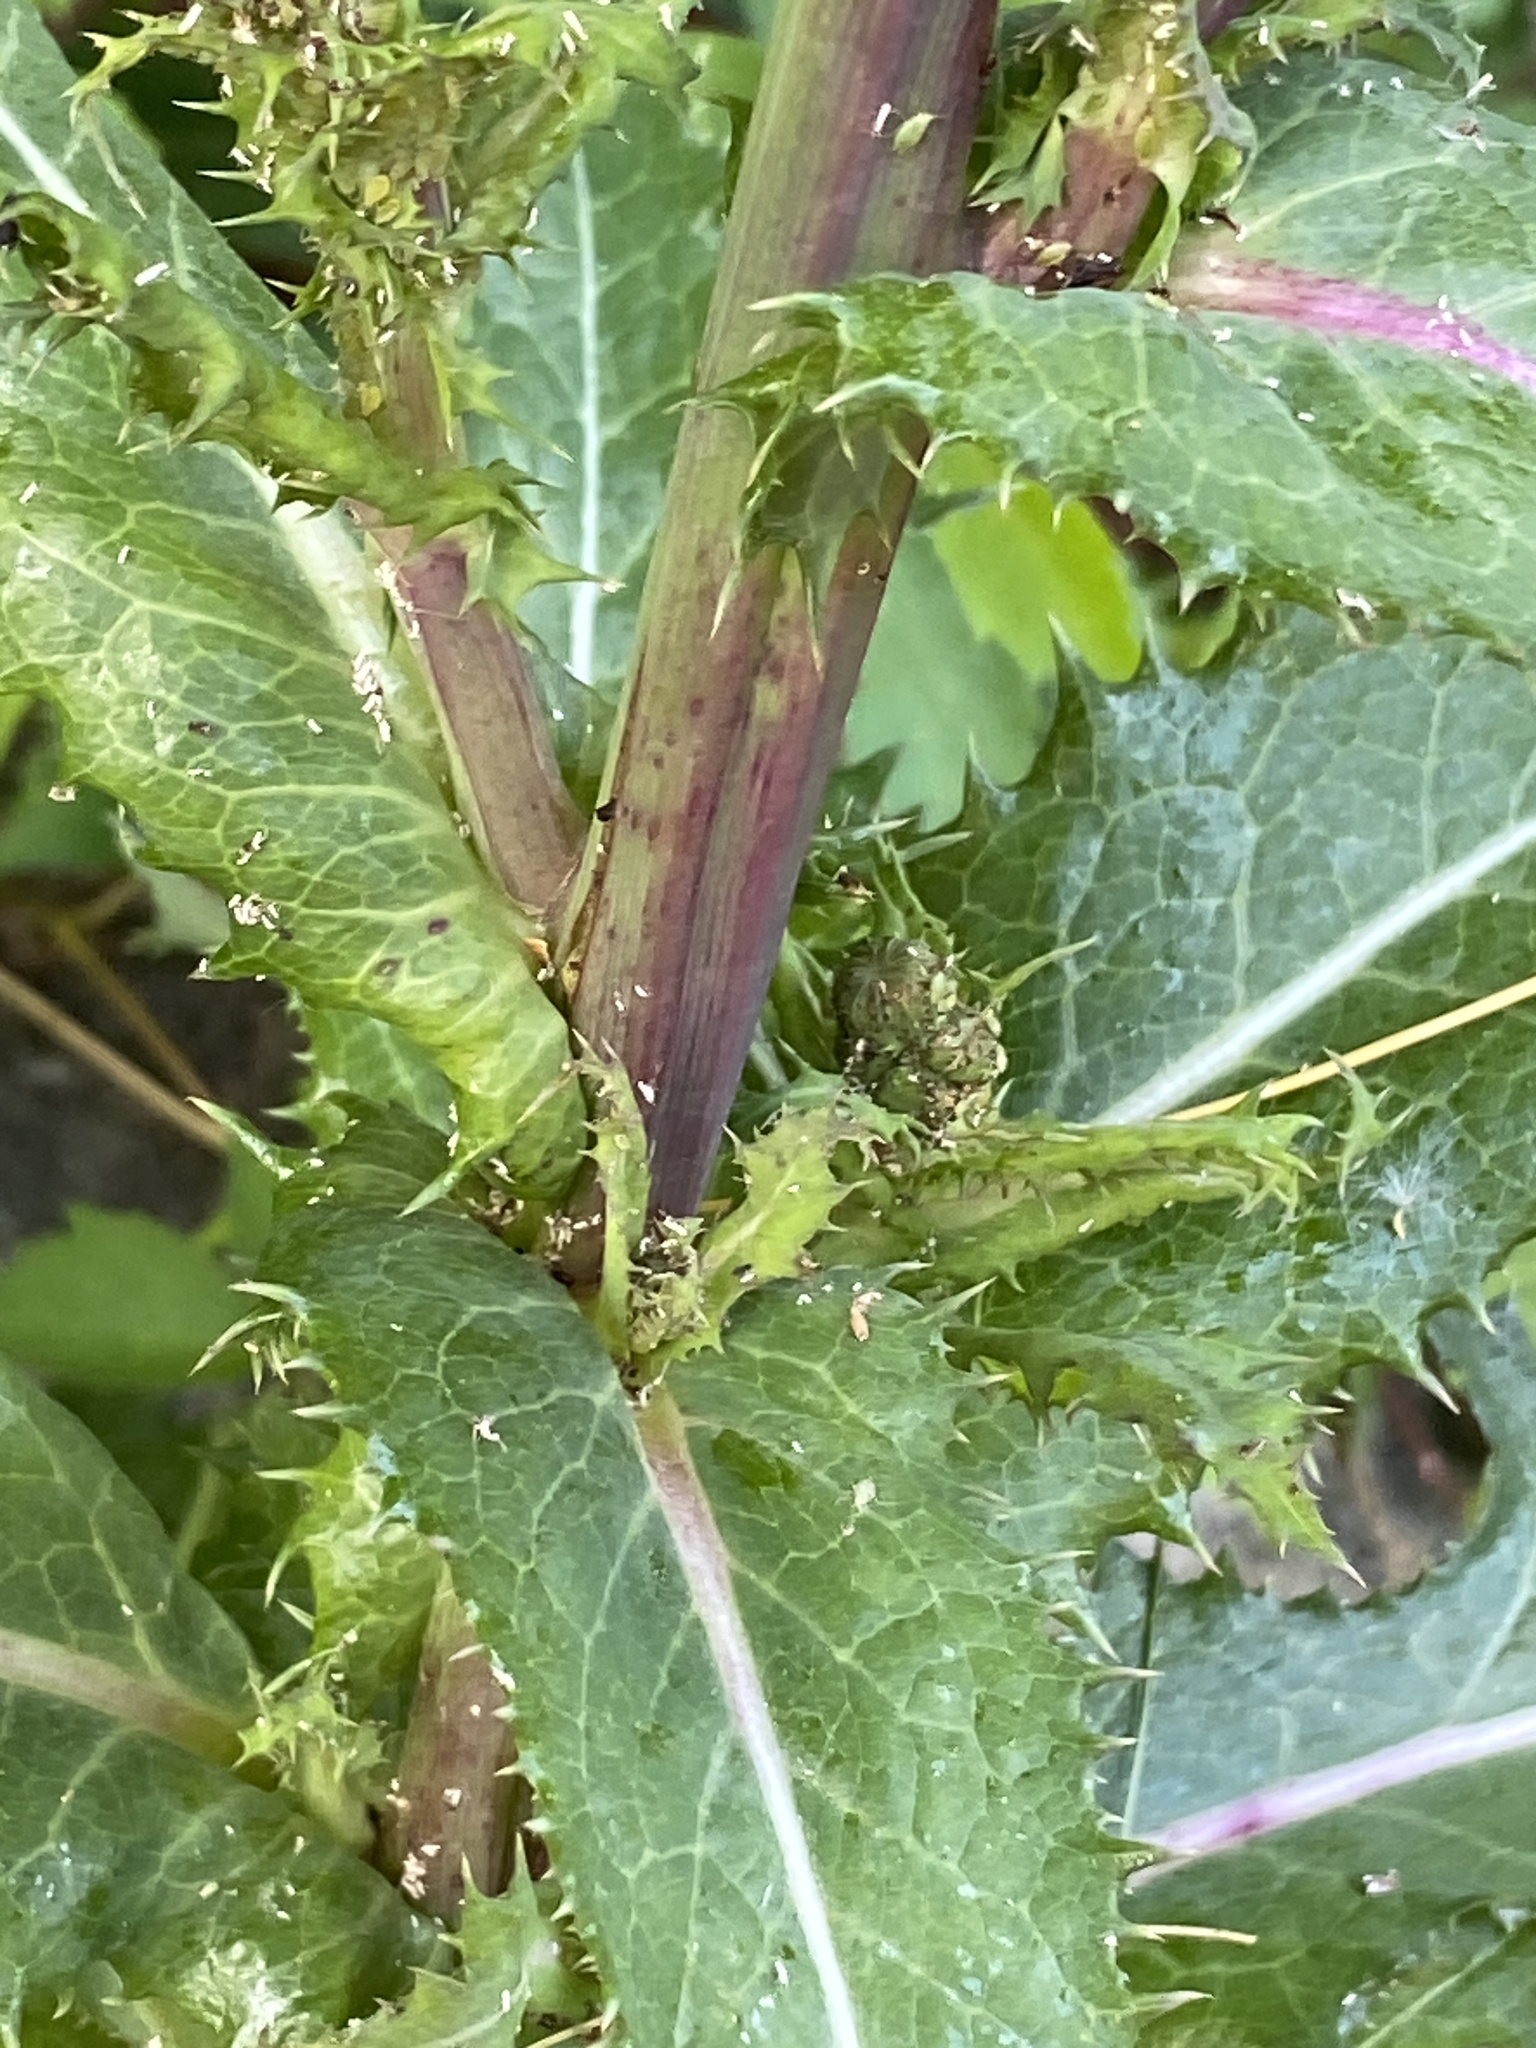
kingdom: Plantae
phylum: Tracheophyta
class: Magnoliopsida
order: Asterales
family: Asteraceae
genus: Sonchus
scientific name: Sonchus asper
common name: Prickly sow-thistle
